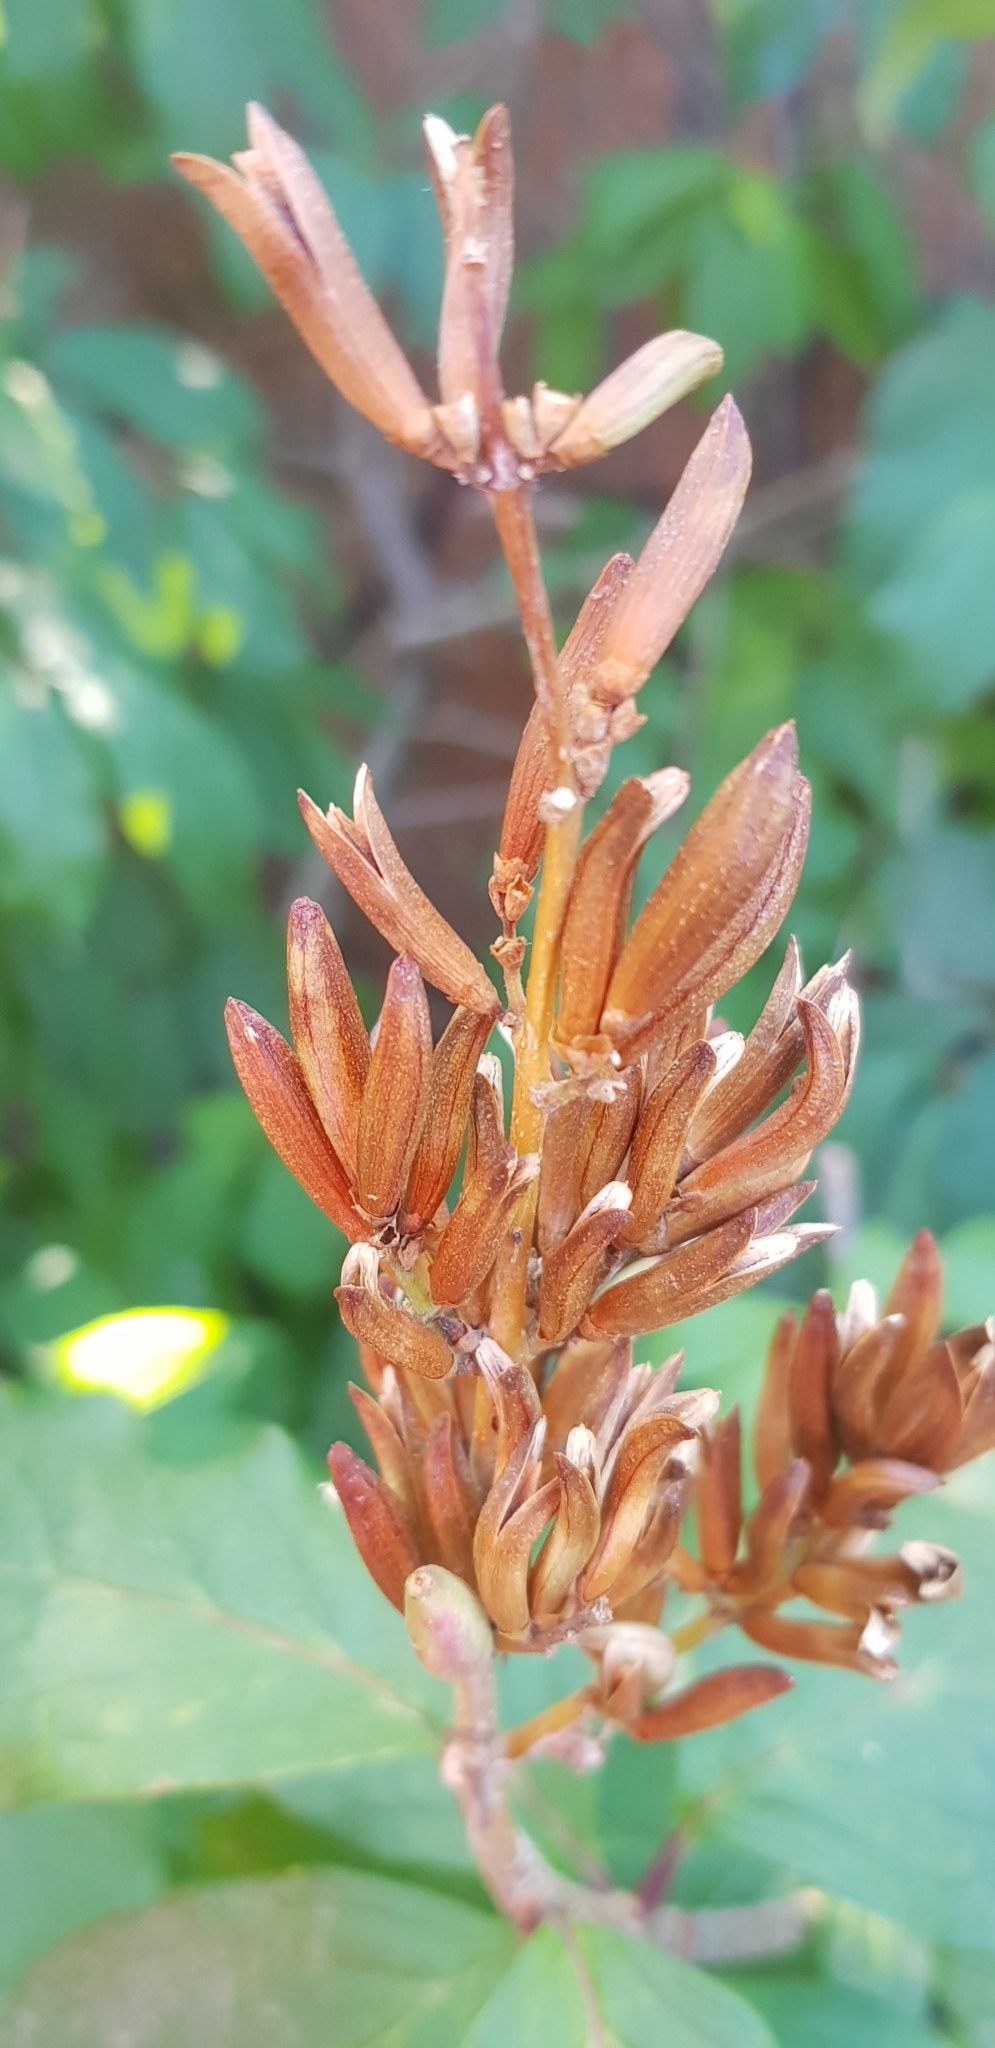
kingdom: Plantae
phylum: Tracheophyta
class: Magnoliopsida
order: Lamiales
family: Oleaceae
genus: Syringa
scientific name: Syringa josikaea
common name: Hungarian lilac
